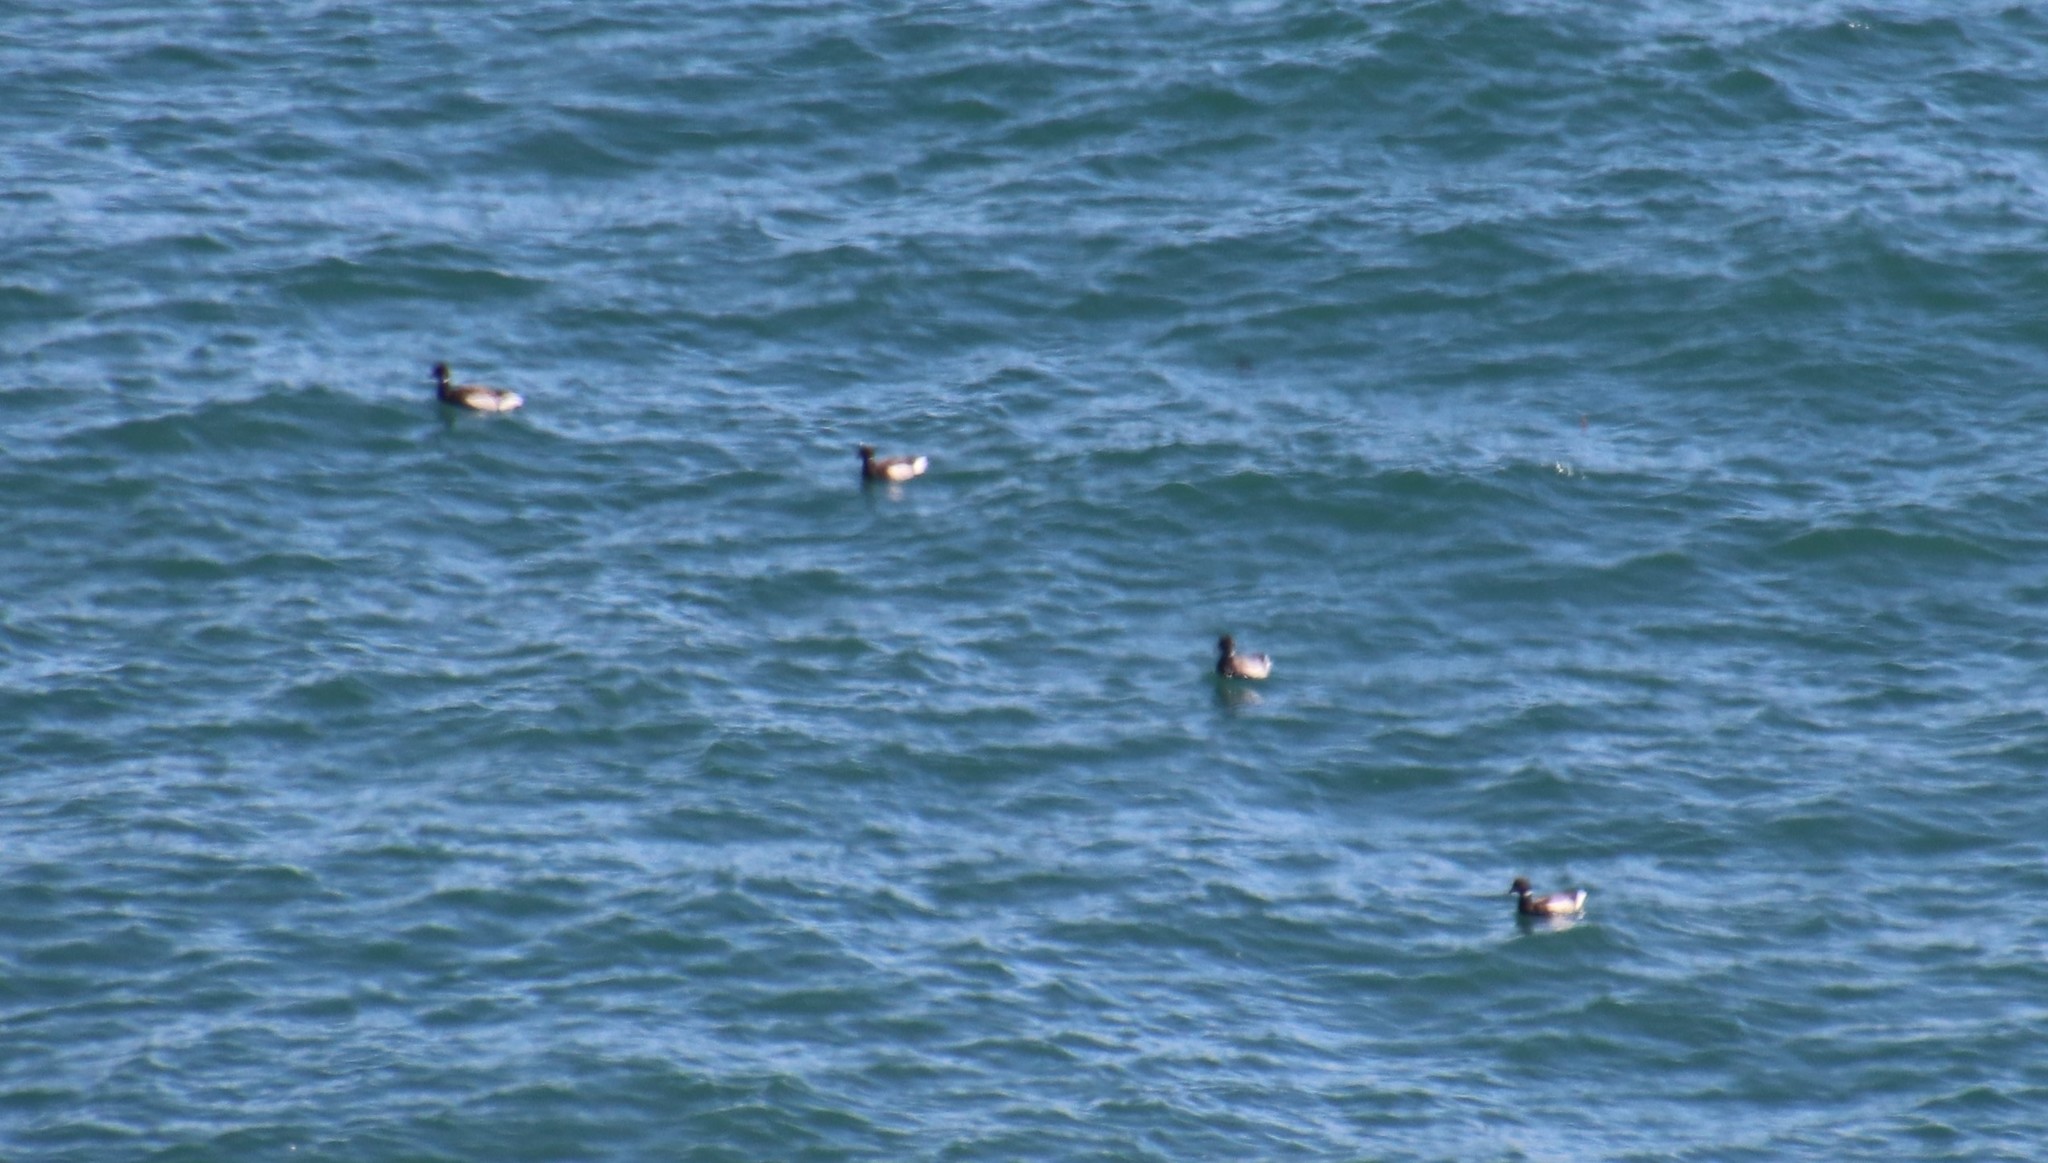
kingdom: Animalia
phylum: Chordata
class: Aves
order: Anseriformes
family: Anatidae
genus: Branta
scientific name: Branta bernicla
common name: Brant goose
